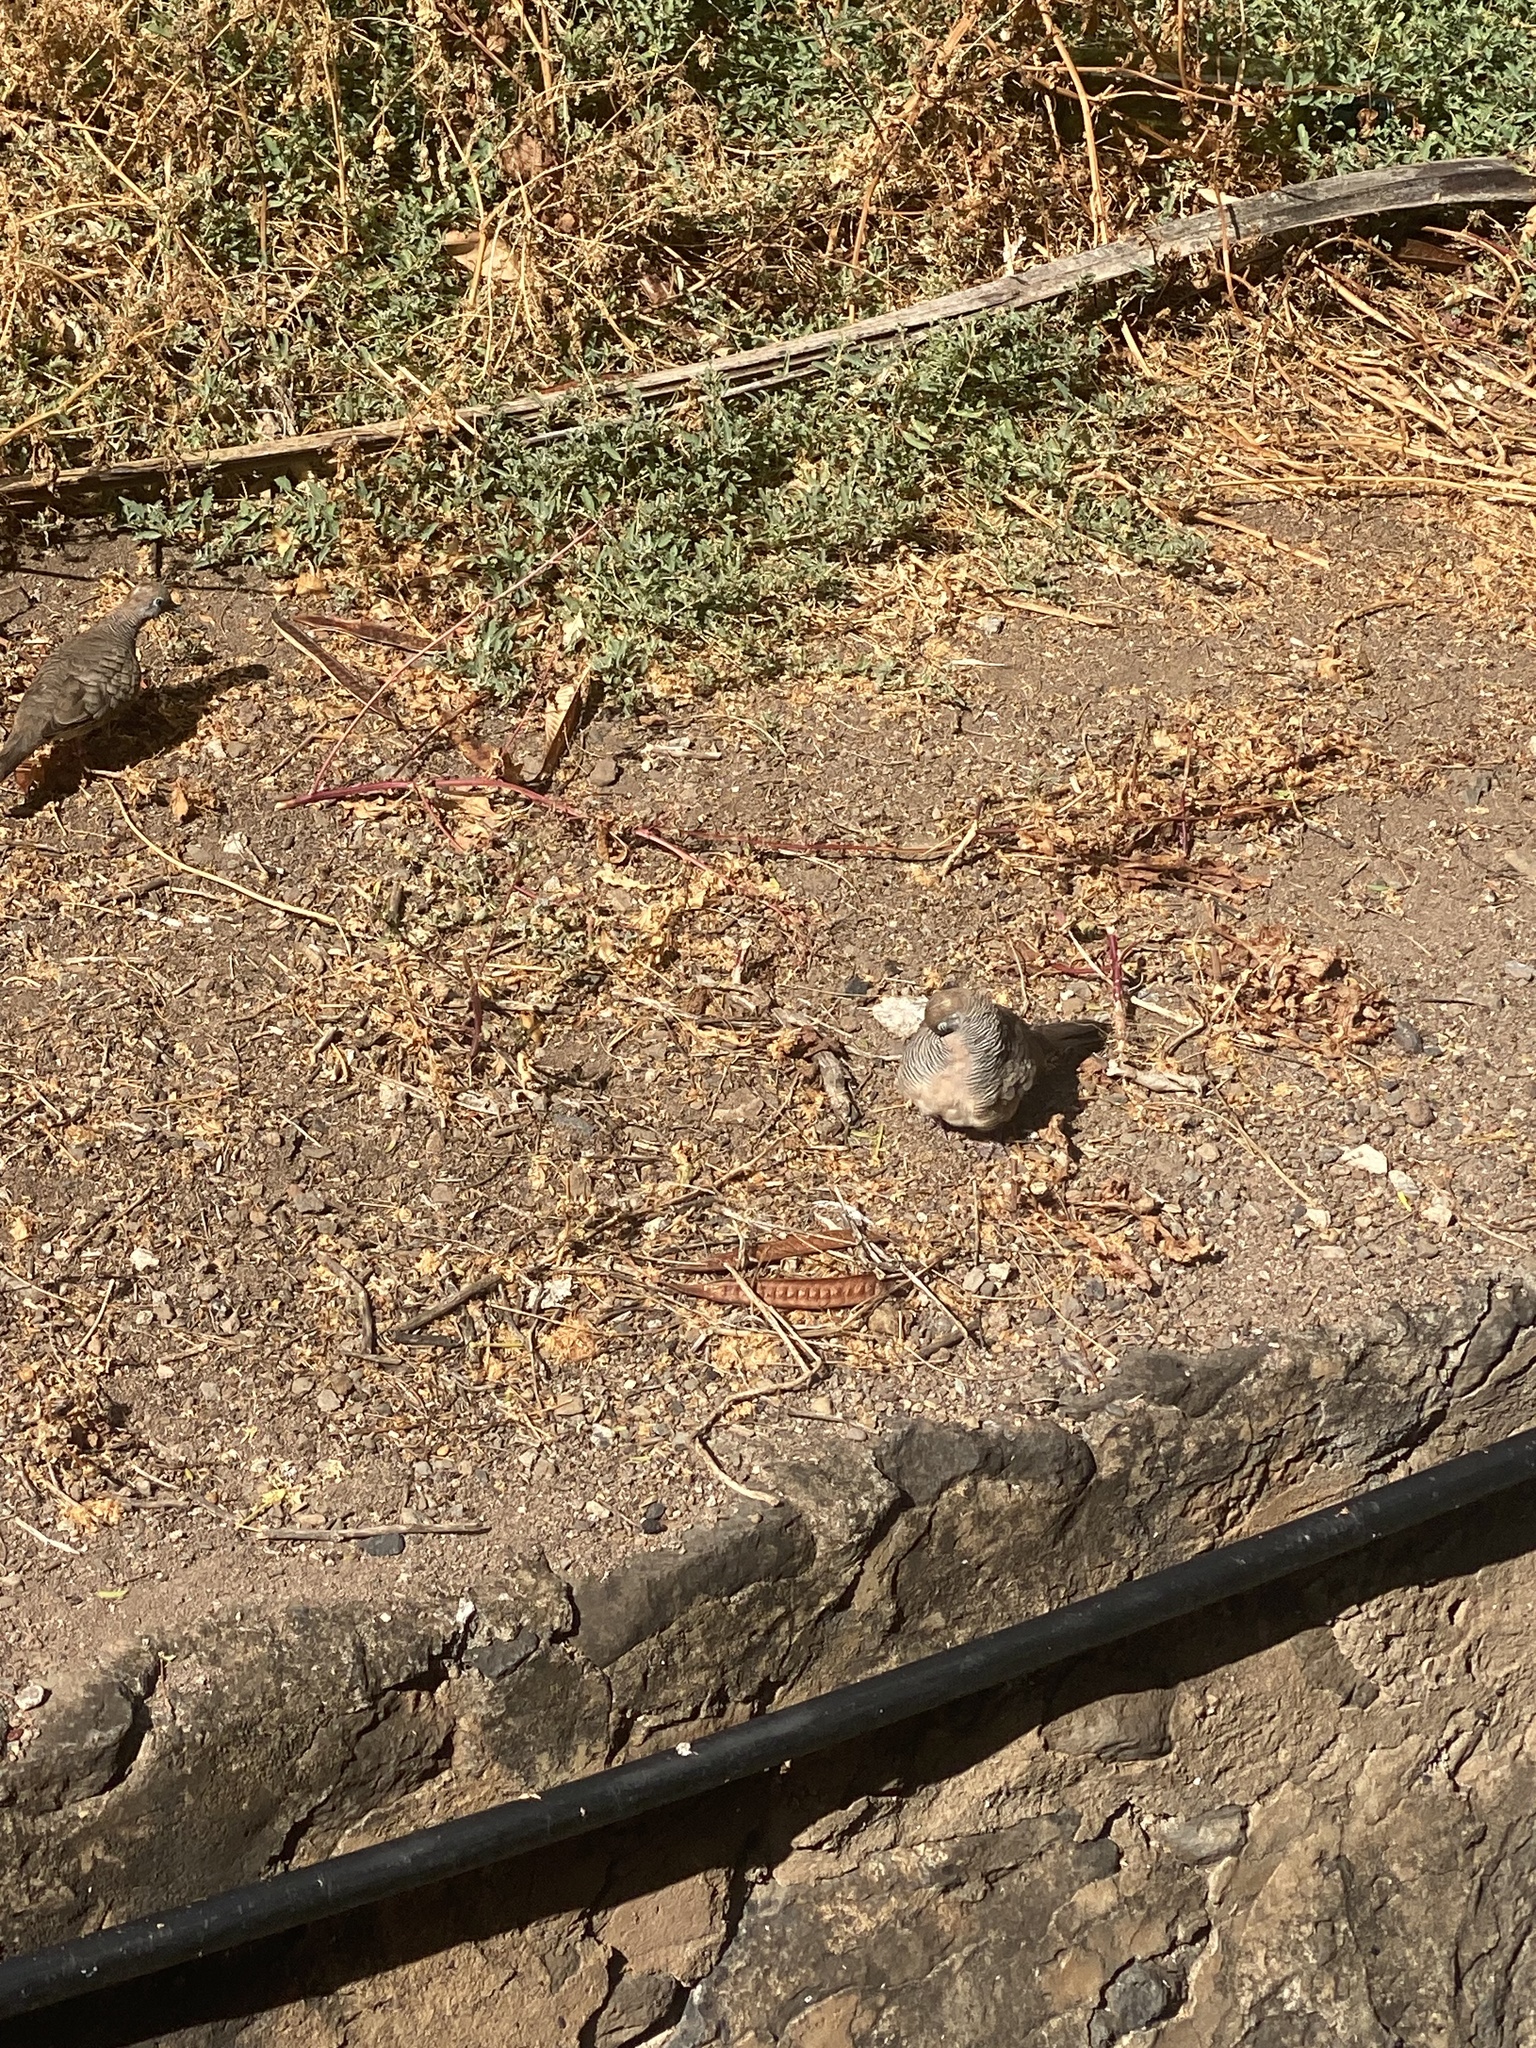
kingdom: Animalia
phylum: Chordata
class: Aves
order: Columbiformes
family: Columbidae
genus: Geopelia
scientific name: Geopelia striata
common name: Zebra dove
